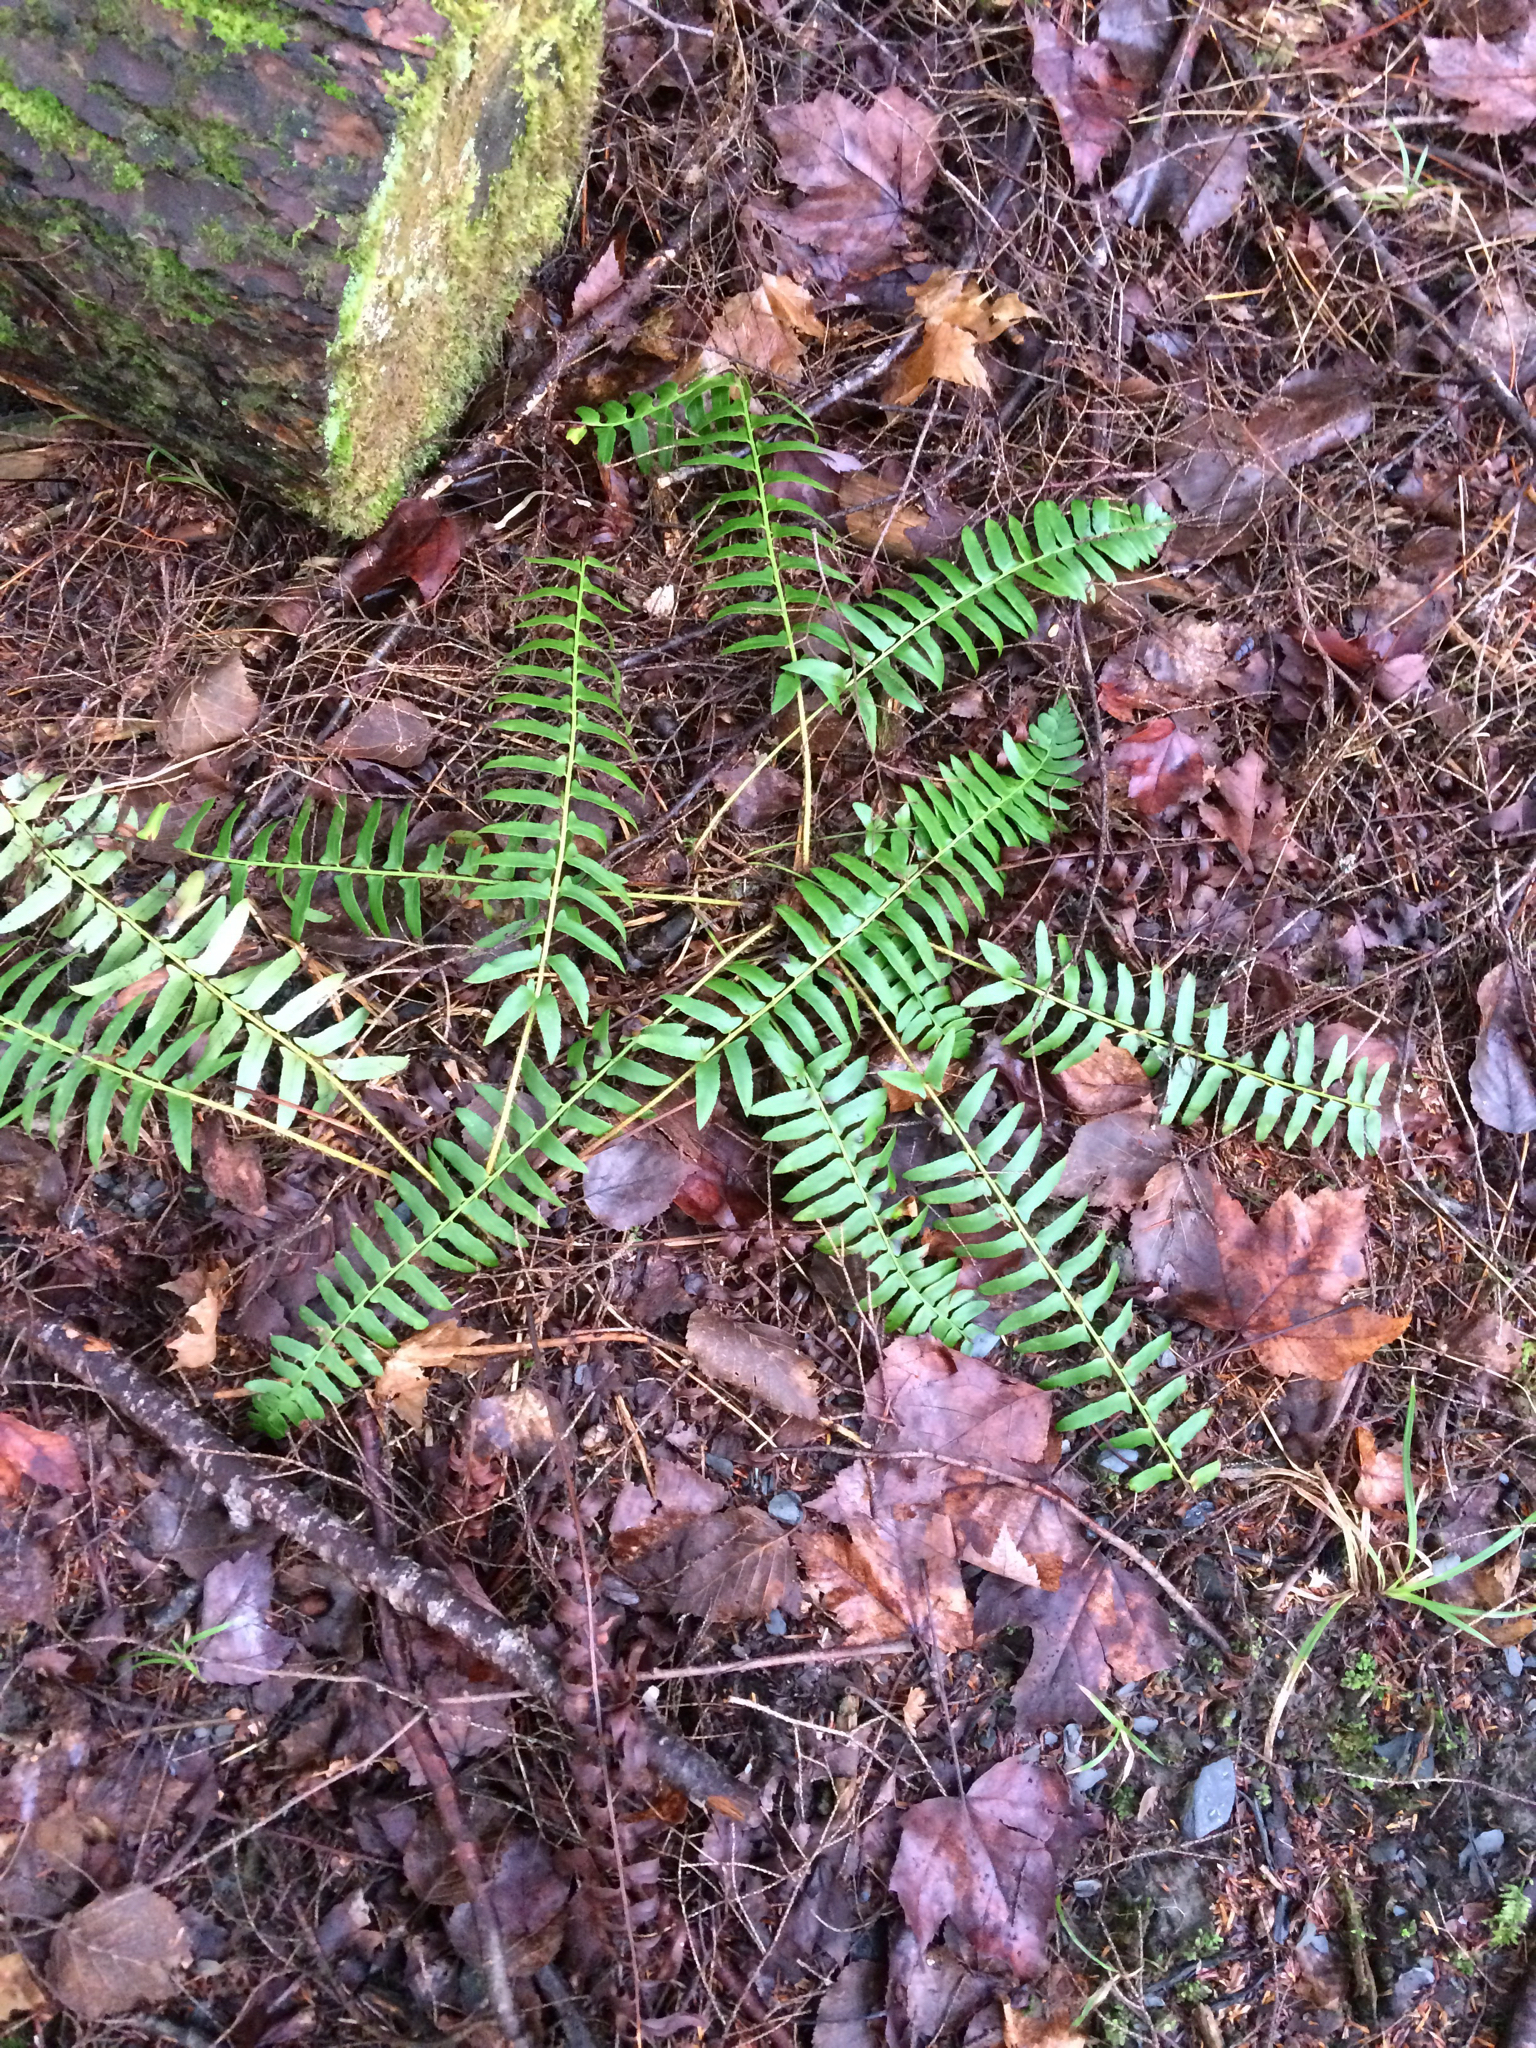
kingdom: Plantae
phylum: Tracheophyta
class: Polypodiopsida
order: Polypodiales
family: Dryopteridaceae
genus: Polystichum
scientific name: Polystichum acrostichoides
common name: Christmas fern
